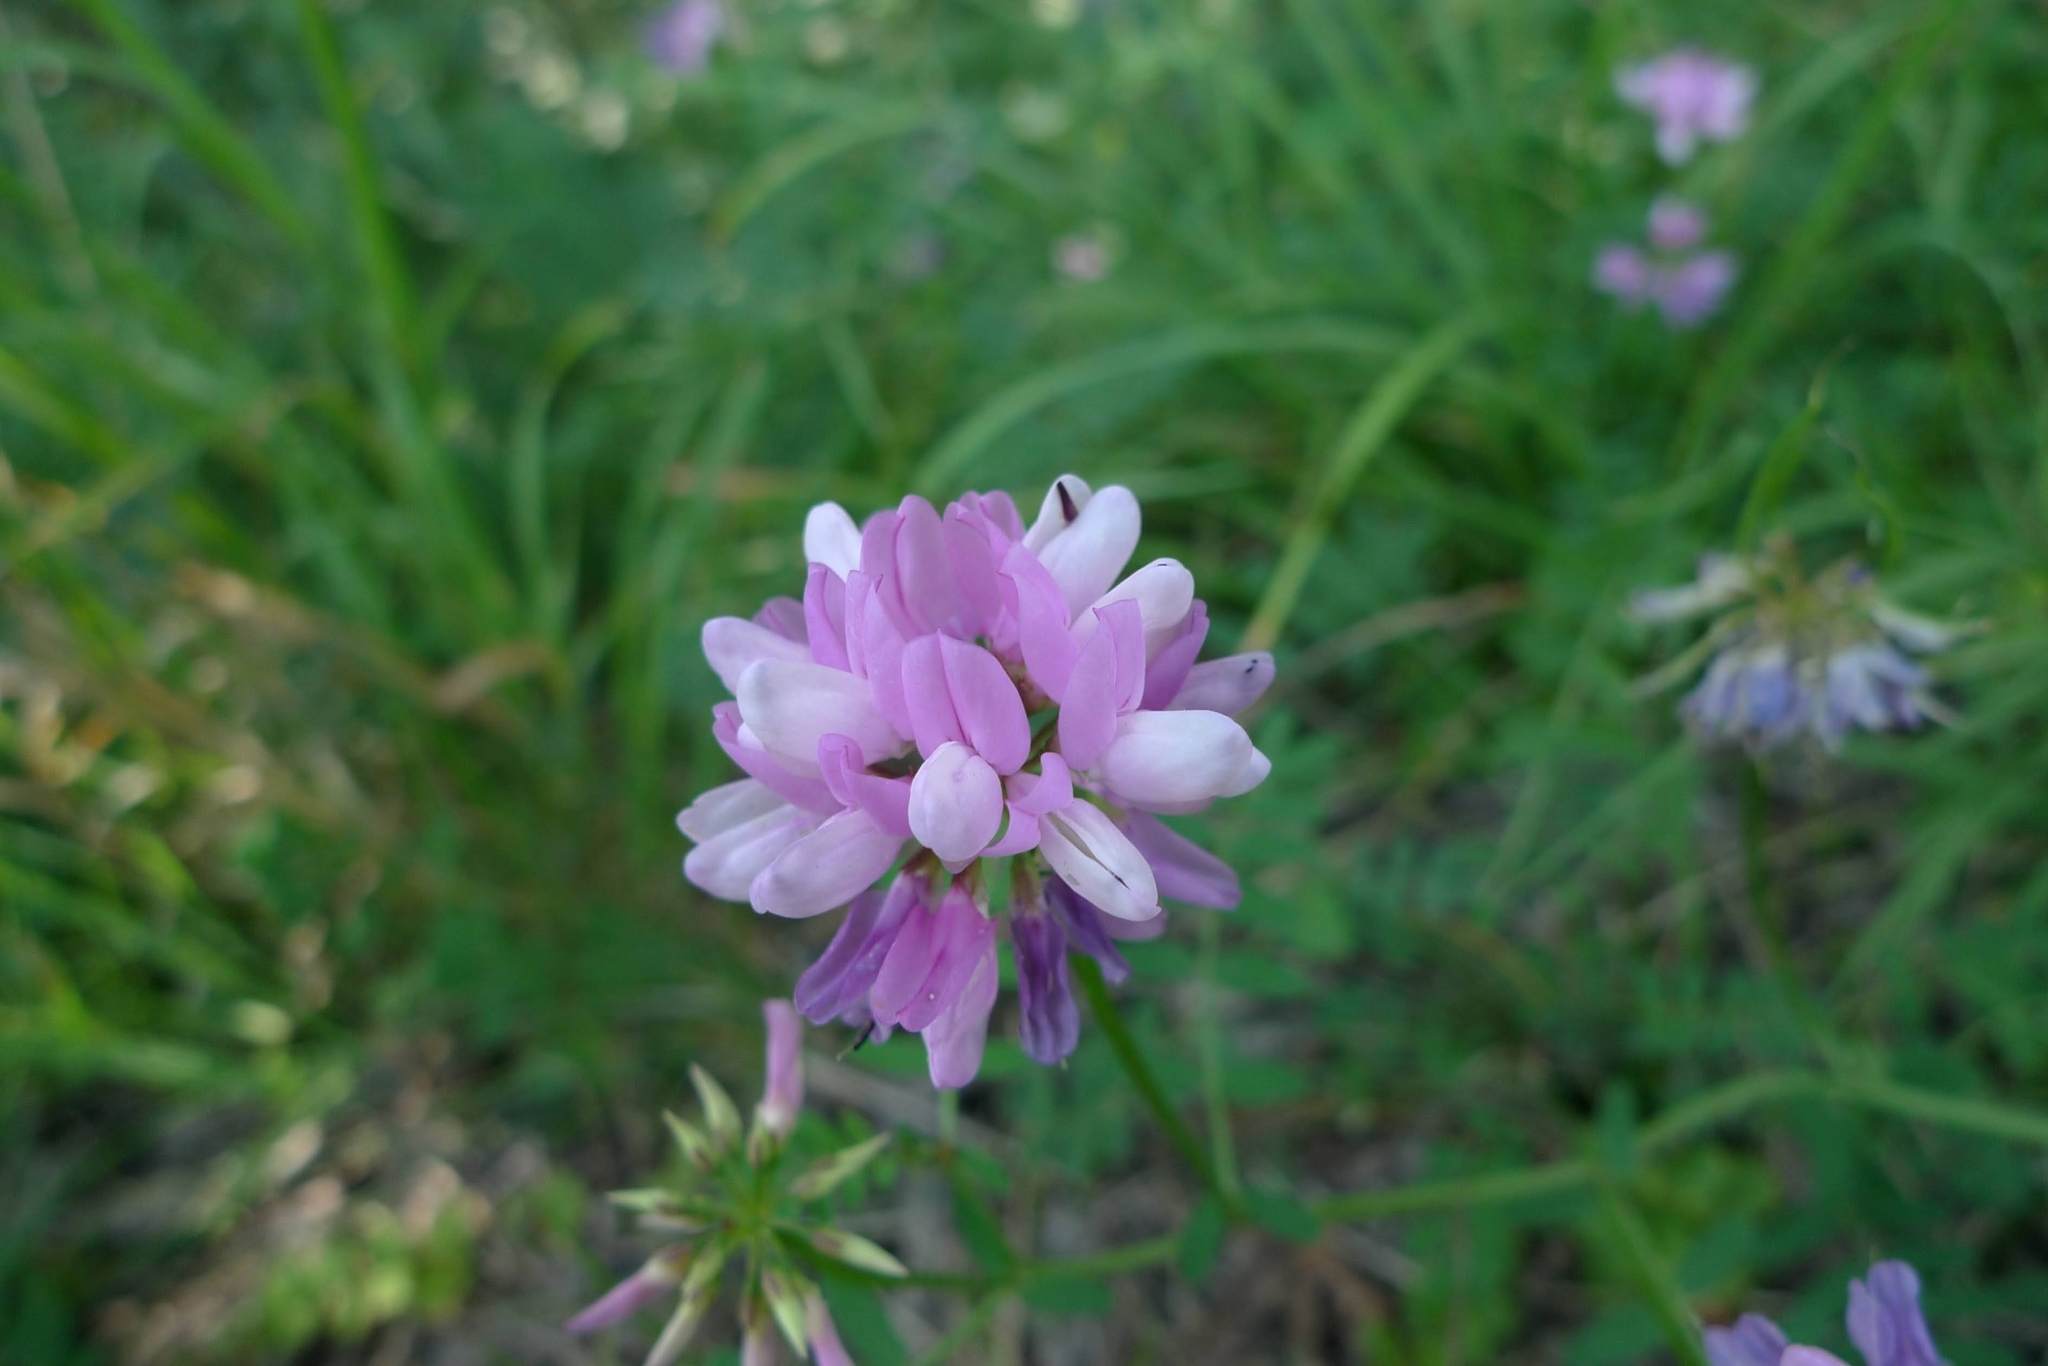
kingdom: Plantae
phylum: Tracheophyta
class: Magnoliopsida
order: Fabales
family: Fabaceae
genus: Coronilla
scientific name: Coronilla varia
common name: Crownvetch
